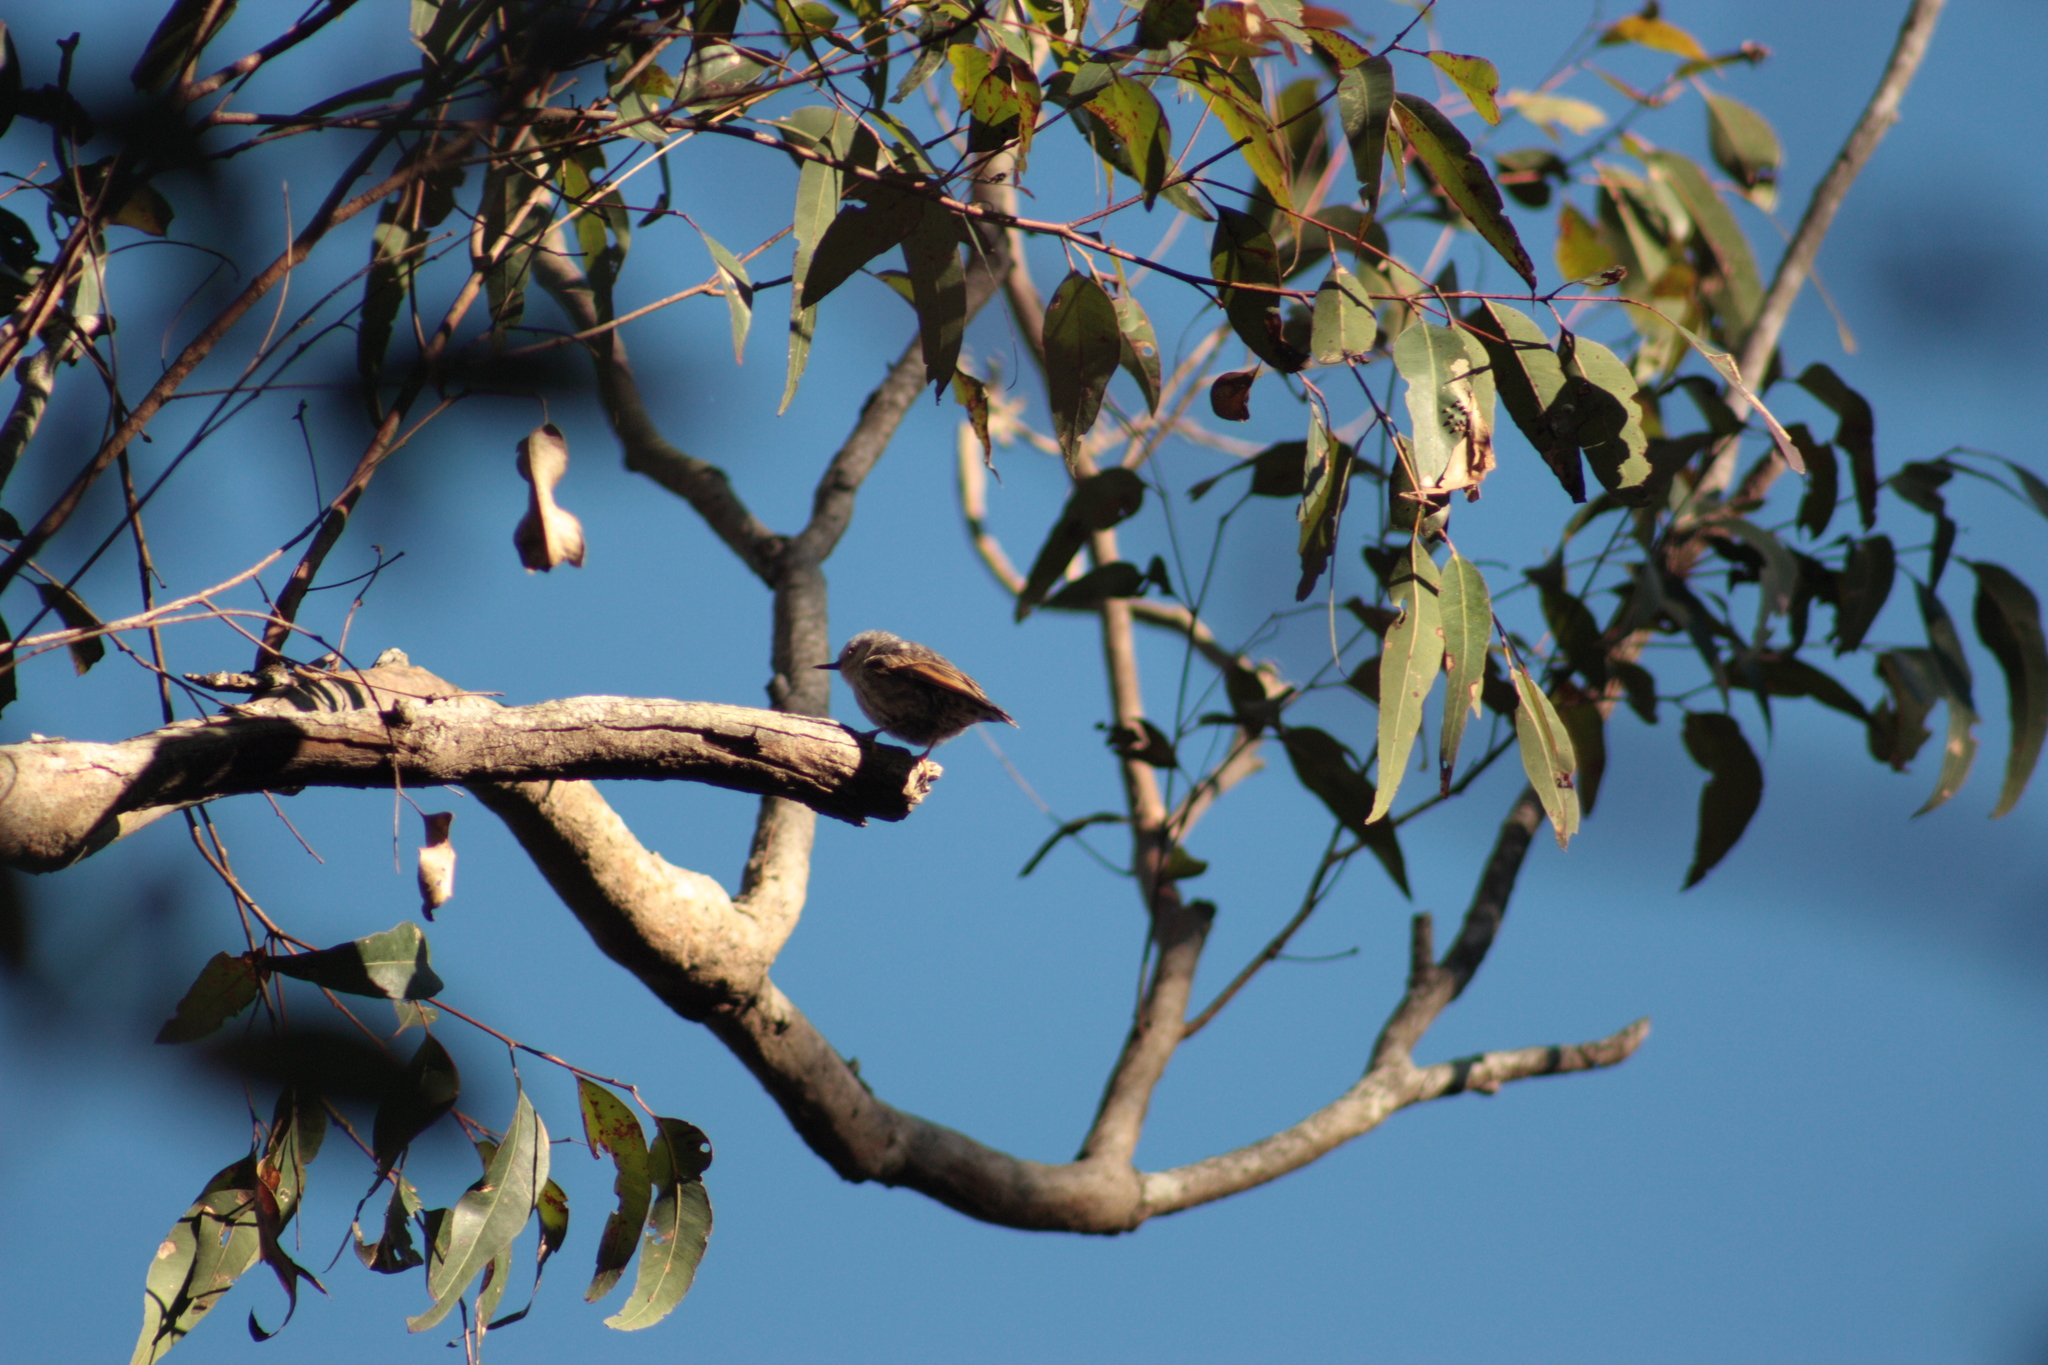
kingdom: Animalia
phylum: Chordata
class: Aves
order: Passeriformes
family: Neosittidae
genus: Daphoenositta
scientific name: Daphoenositta chrysoptera
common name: Varied sittella
